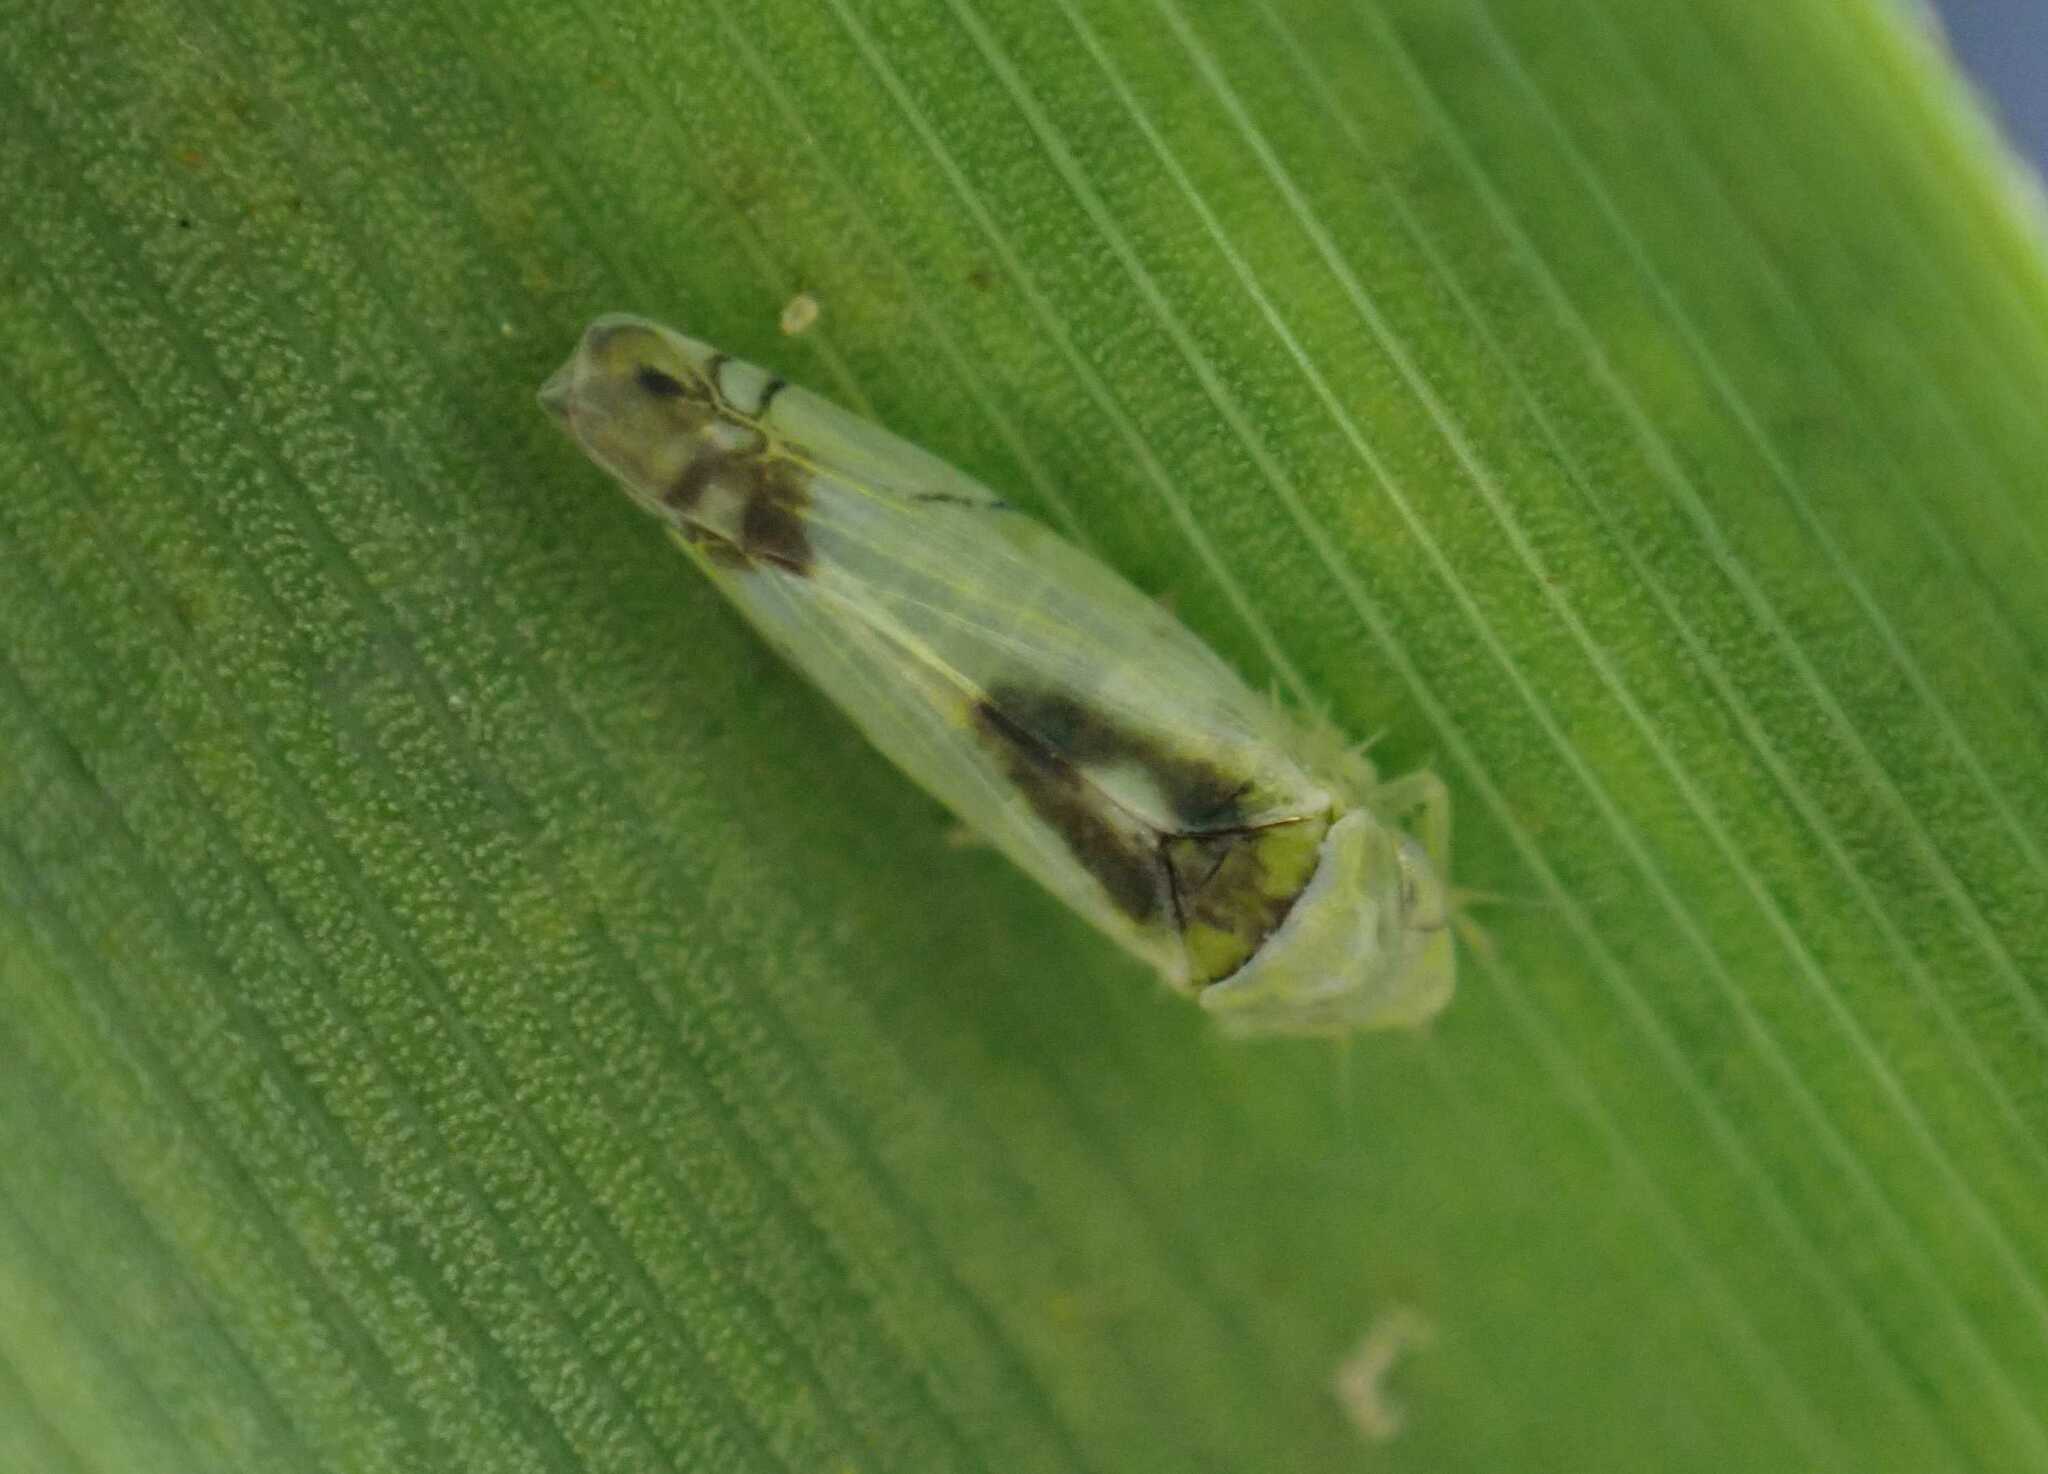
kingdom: Animalia
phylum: Arthropoda
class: Insecta
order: Hemiptera
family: Cicadellidae
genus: Zyginella
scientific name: Zyginella pulchra
